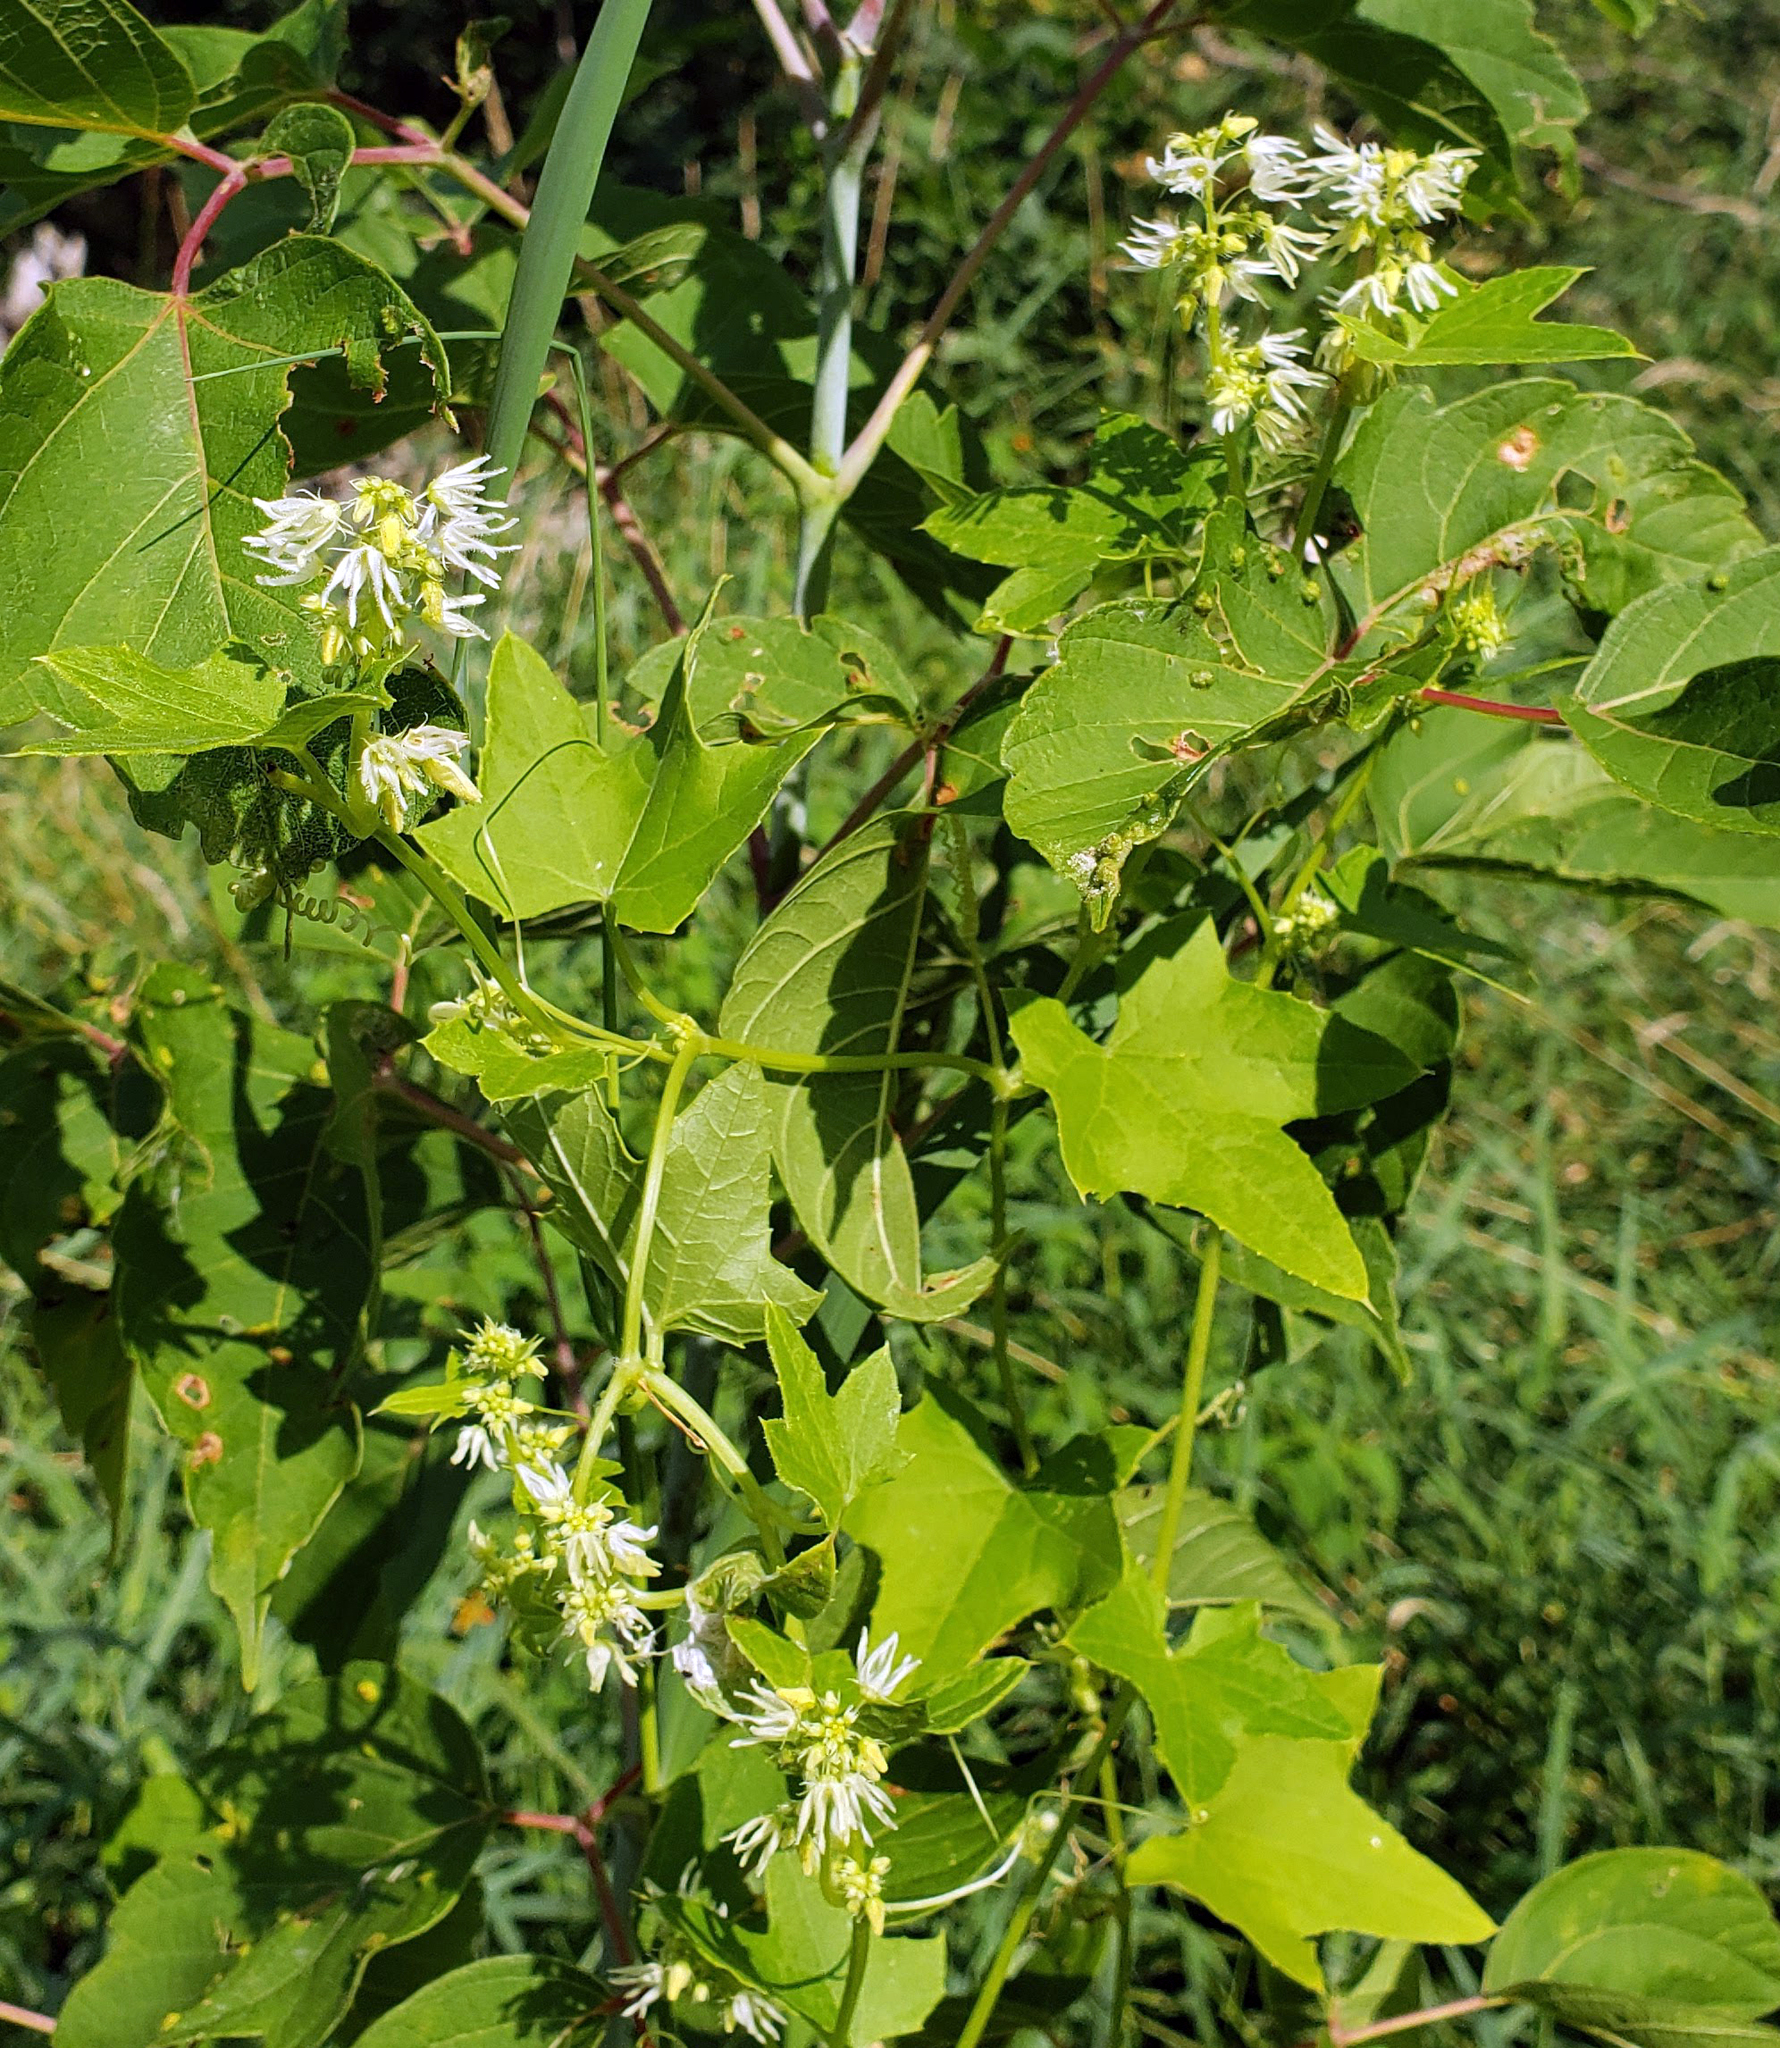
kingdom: Plantae
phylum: Tracheophyta
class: Magnoliopsida
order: Cucurbitales
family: Cucurbitaceae
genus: Echinocystis
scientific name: Echinocystis lobata
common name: Wild cucumber
